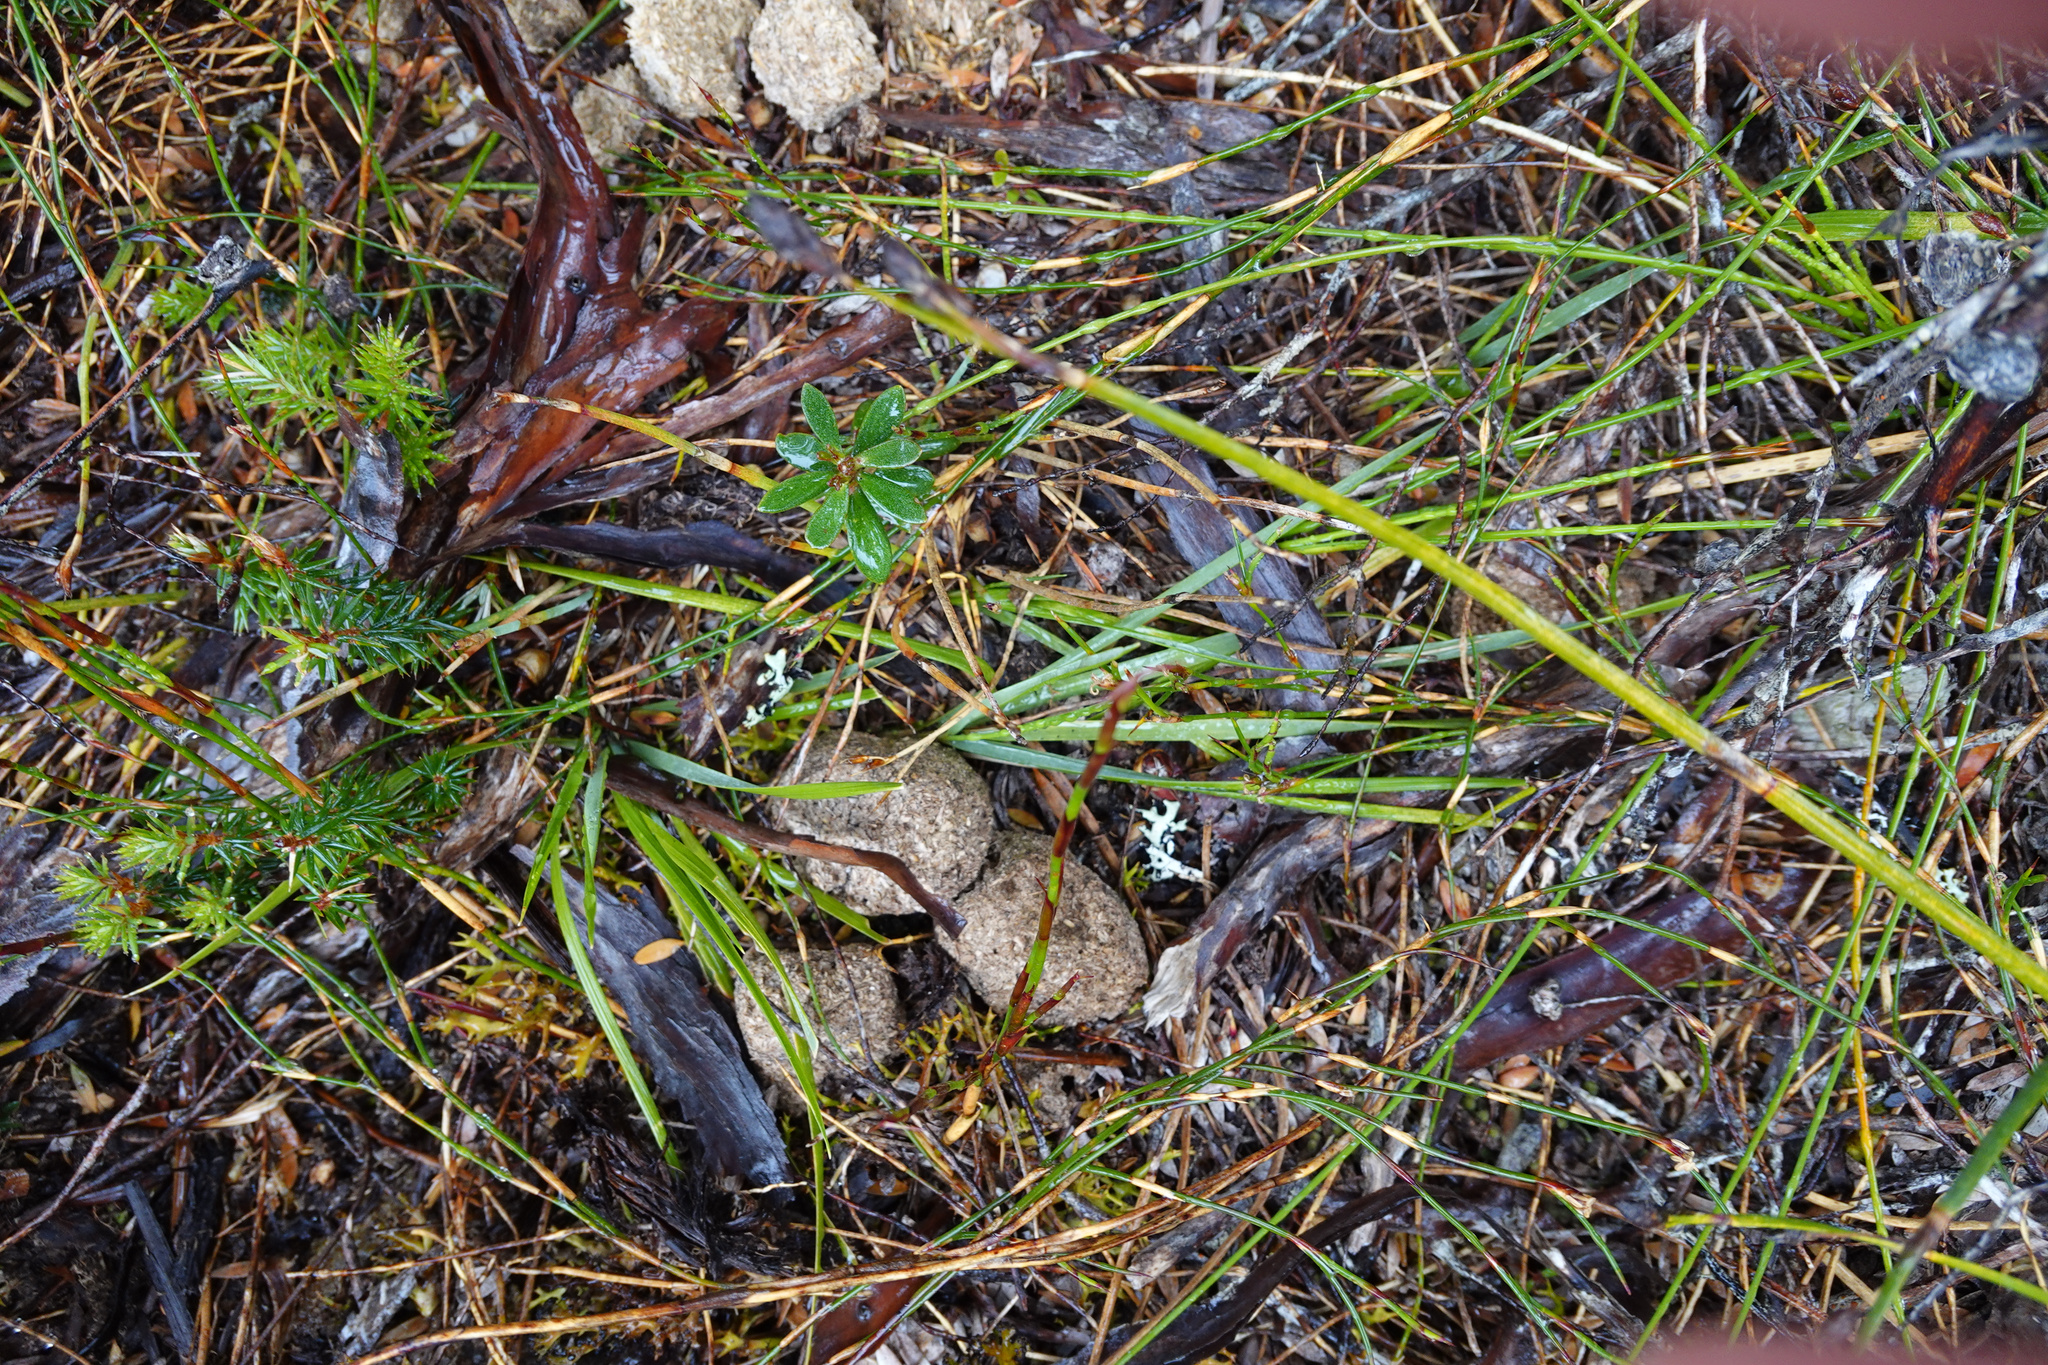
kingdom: Animalia
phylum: Chordata
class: Mammalia
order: Diprotodontia
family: Vombatidae
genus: Vombatus
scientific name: Vombatus ursinus
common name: Common wombat
